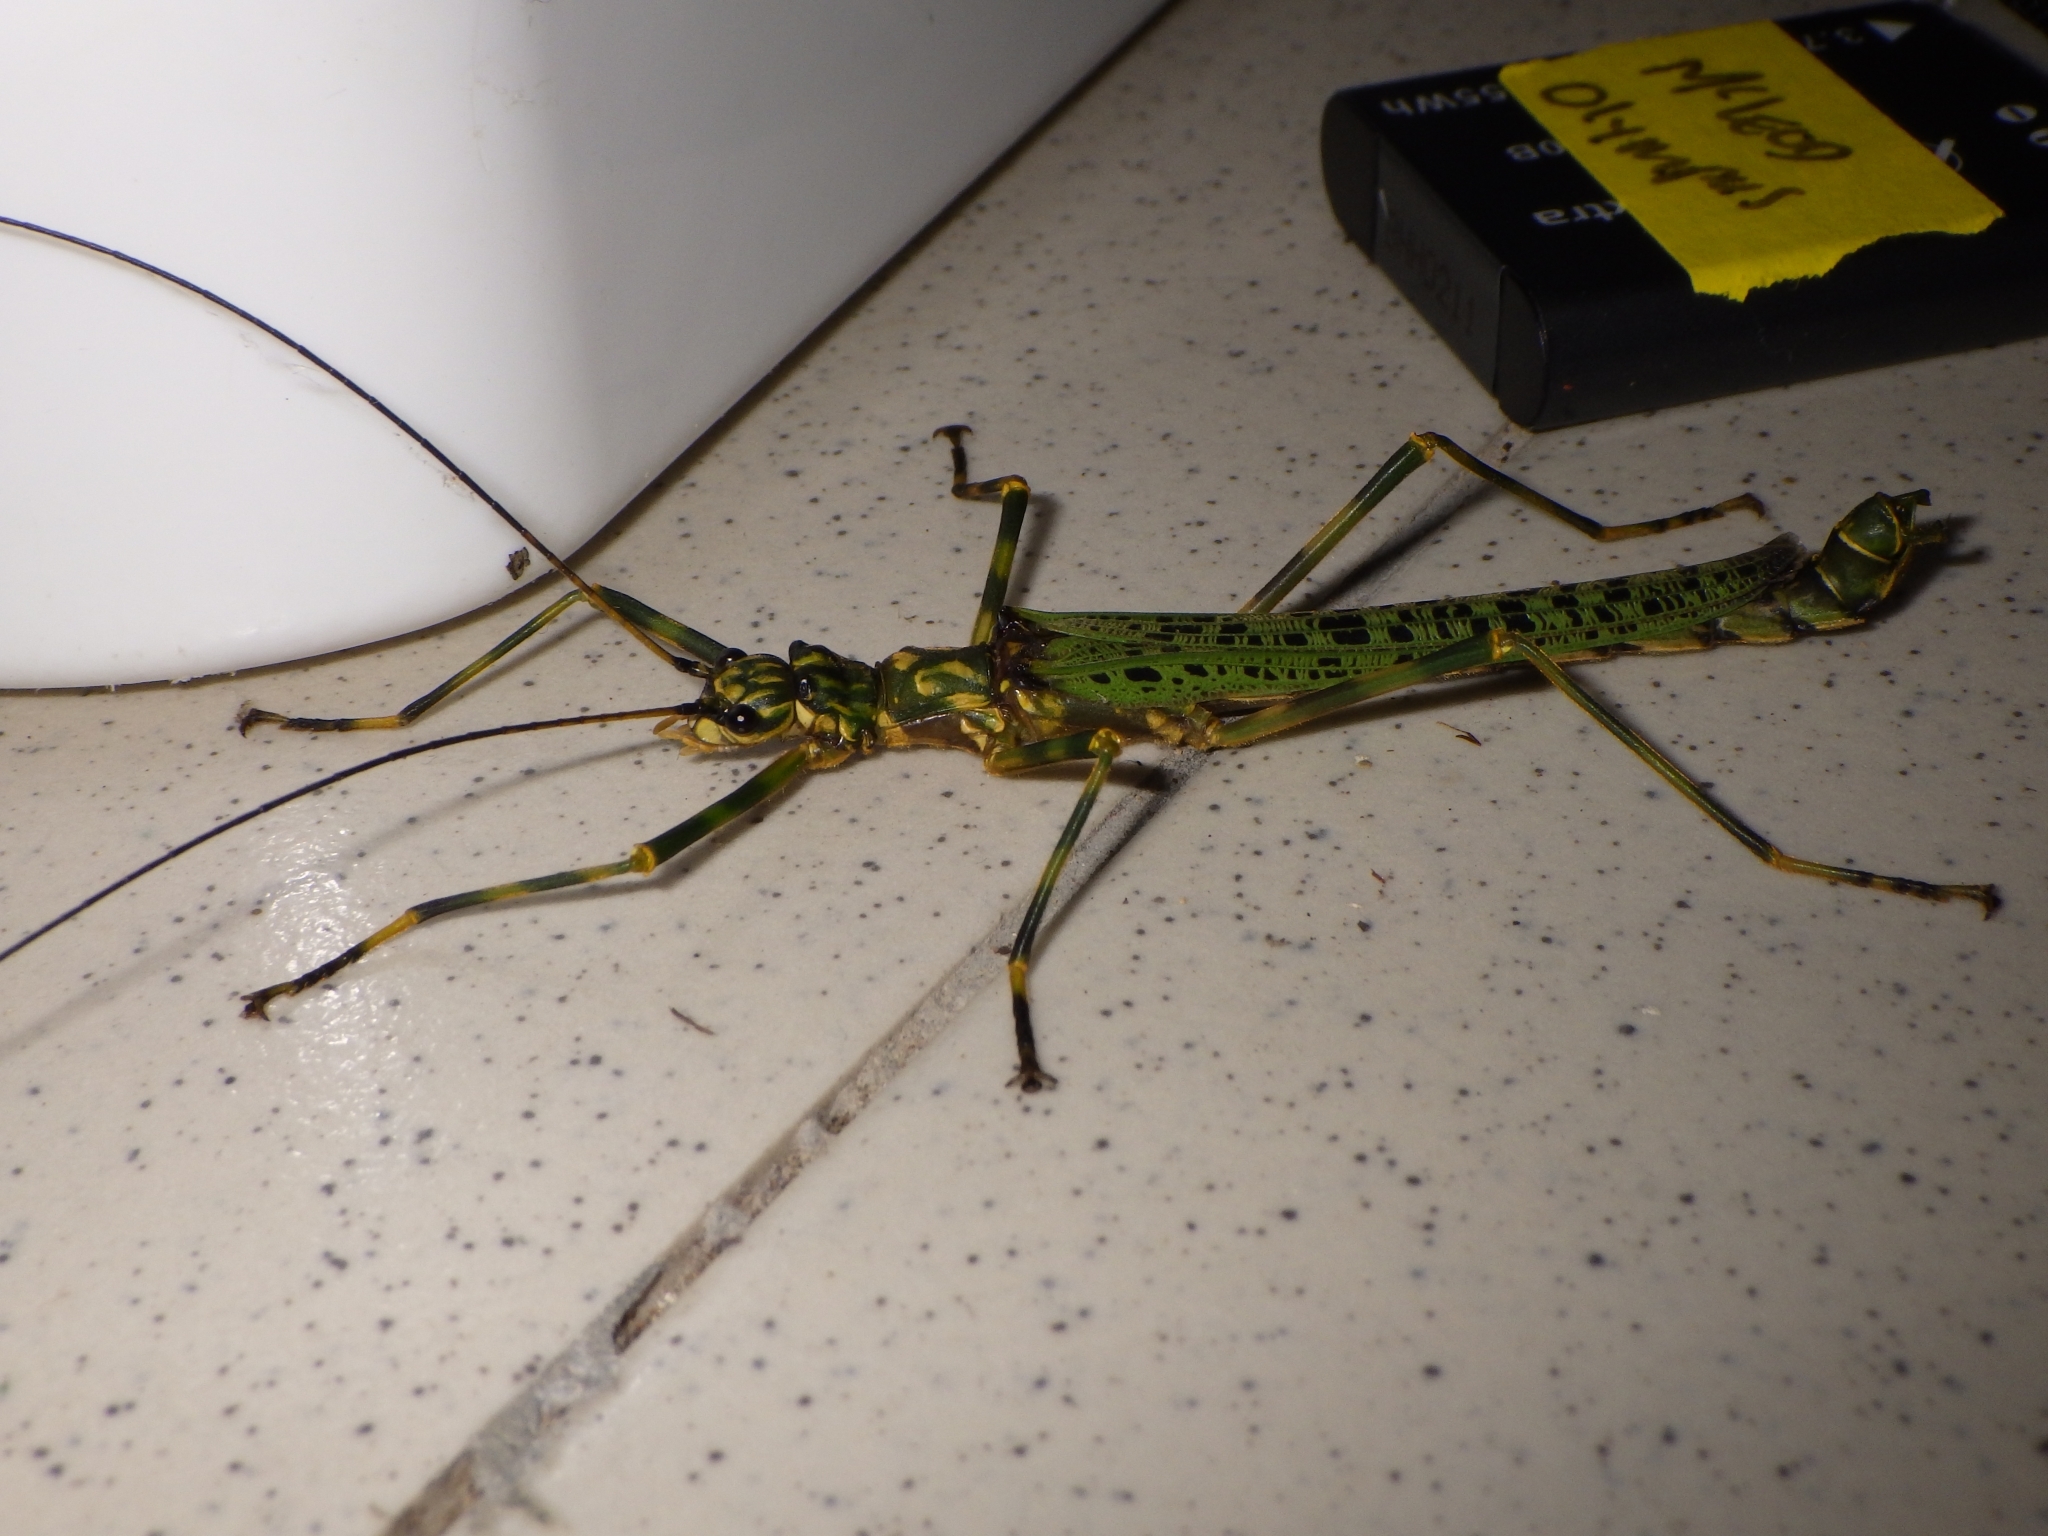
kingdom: Animalia
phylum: Arthropoda
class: Insecta
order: Phasmida
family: Aschiphasmatidae
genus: Aschiphasma
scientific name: Aschiphasma annulipes
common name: Black and green phasma
